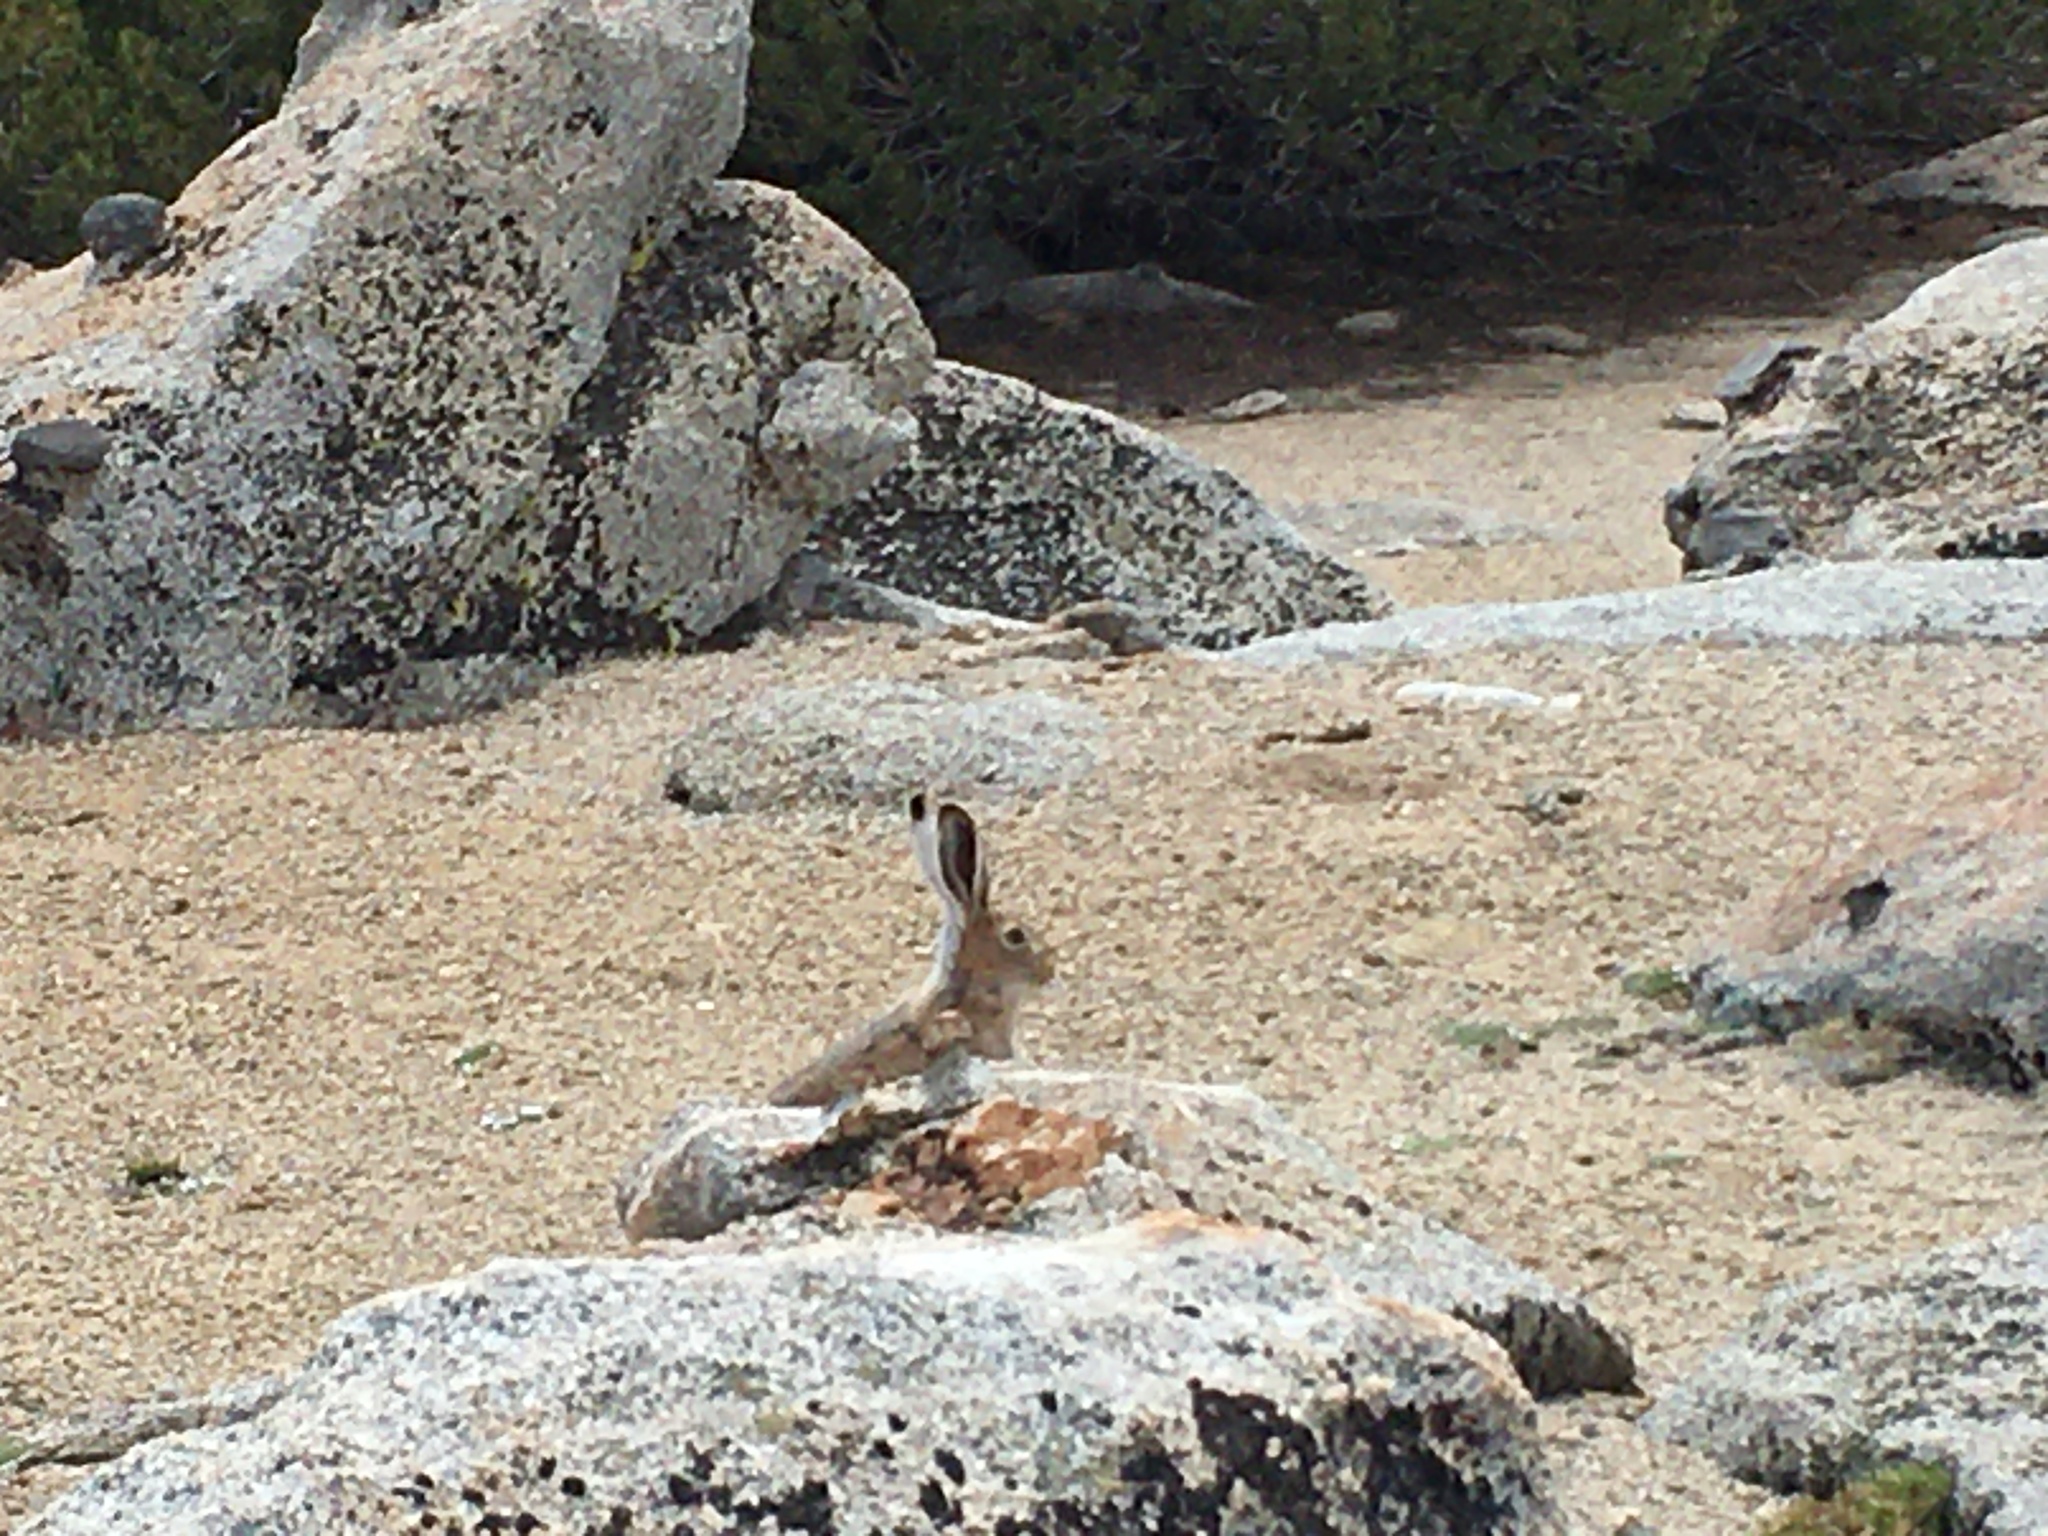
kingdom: Animalia
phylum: Chordata
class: Mammalia
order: Lagomorpha
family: Leporidae
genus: Lepus
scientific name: Lepus townsendii
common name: White-tailed jackrabbit
